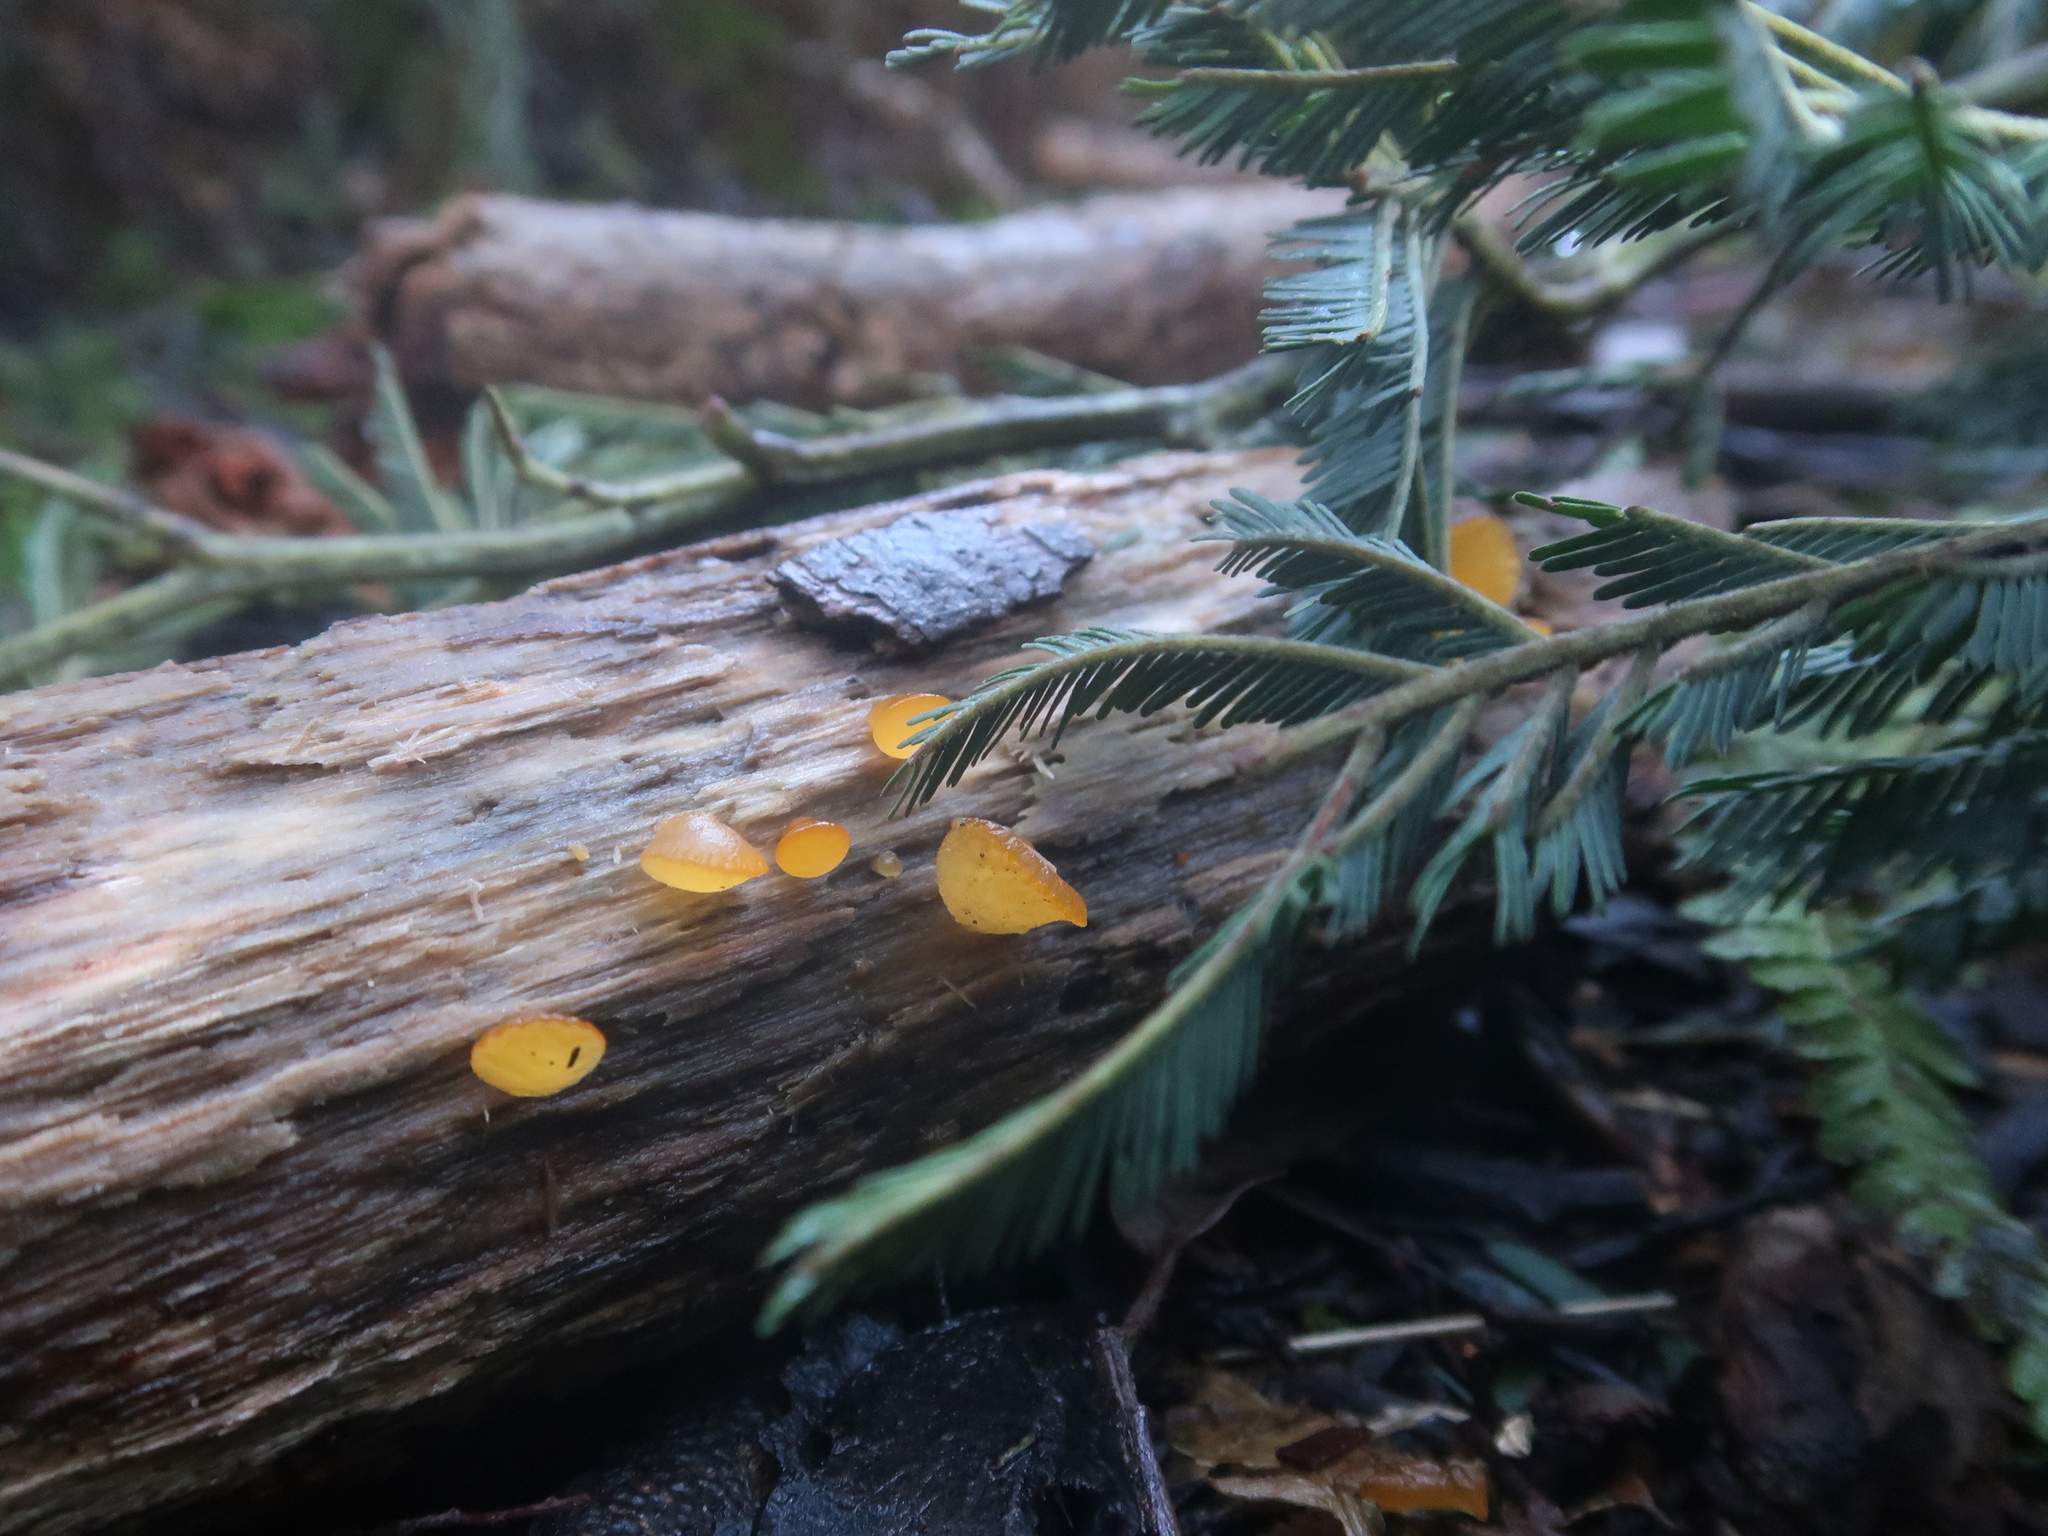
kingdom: Fungi
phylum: Basidiomycota
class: Dacrymycetes
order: Dacrymycetales
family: Dacrymycetaceae
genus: Heterotextus
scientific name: Heterotextus peziziformis
